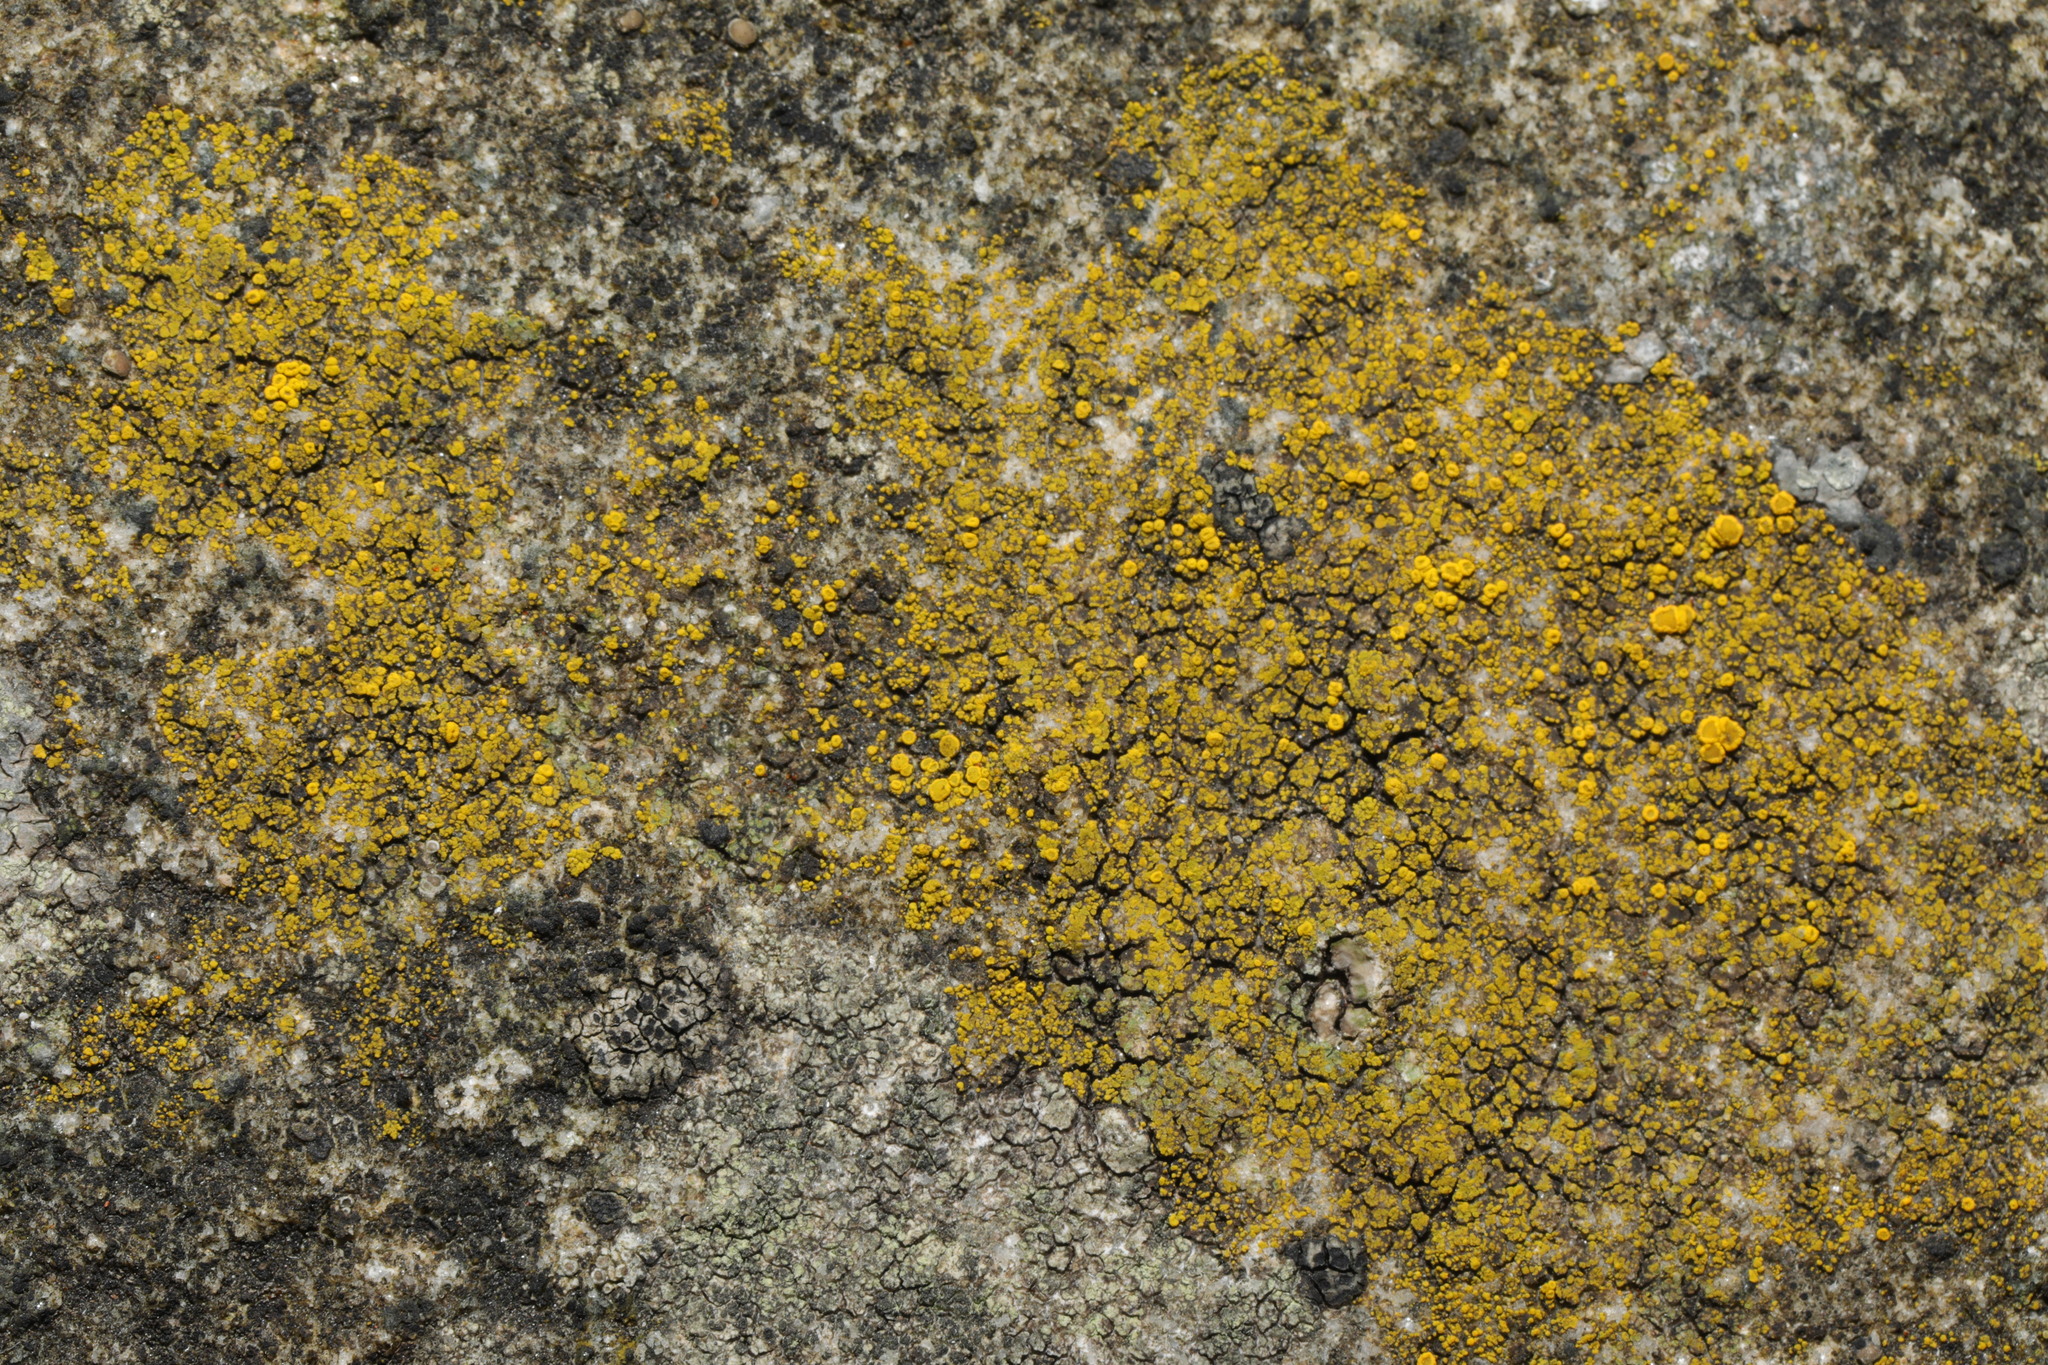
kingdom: Fungi
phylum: Ascomycota
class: Candelariomycetes
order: Candelariales
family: Candelariaceae
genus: Candelariella
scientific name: Candelariella vitellina
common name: Common goldspeck
